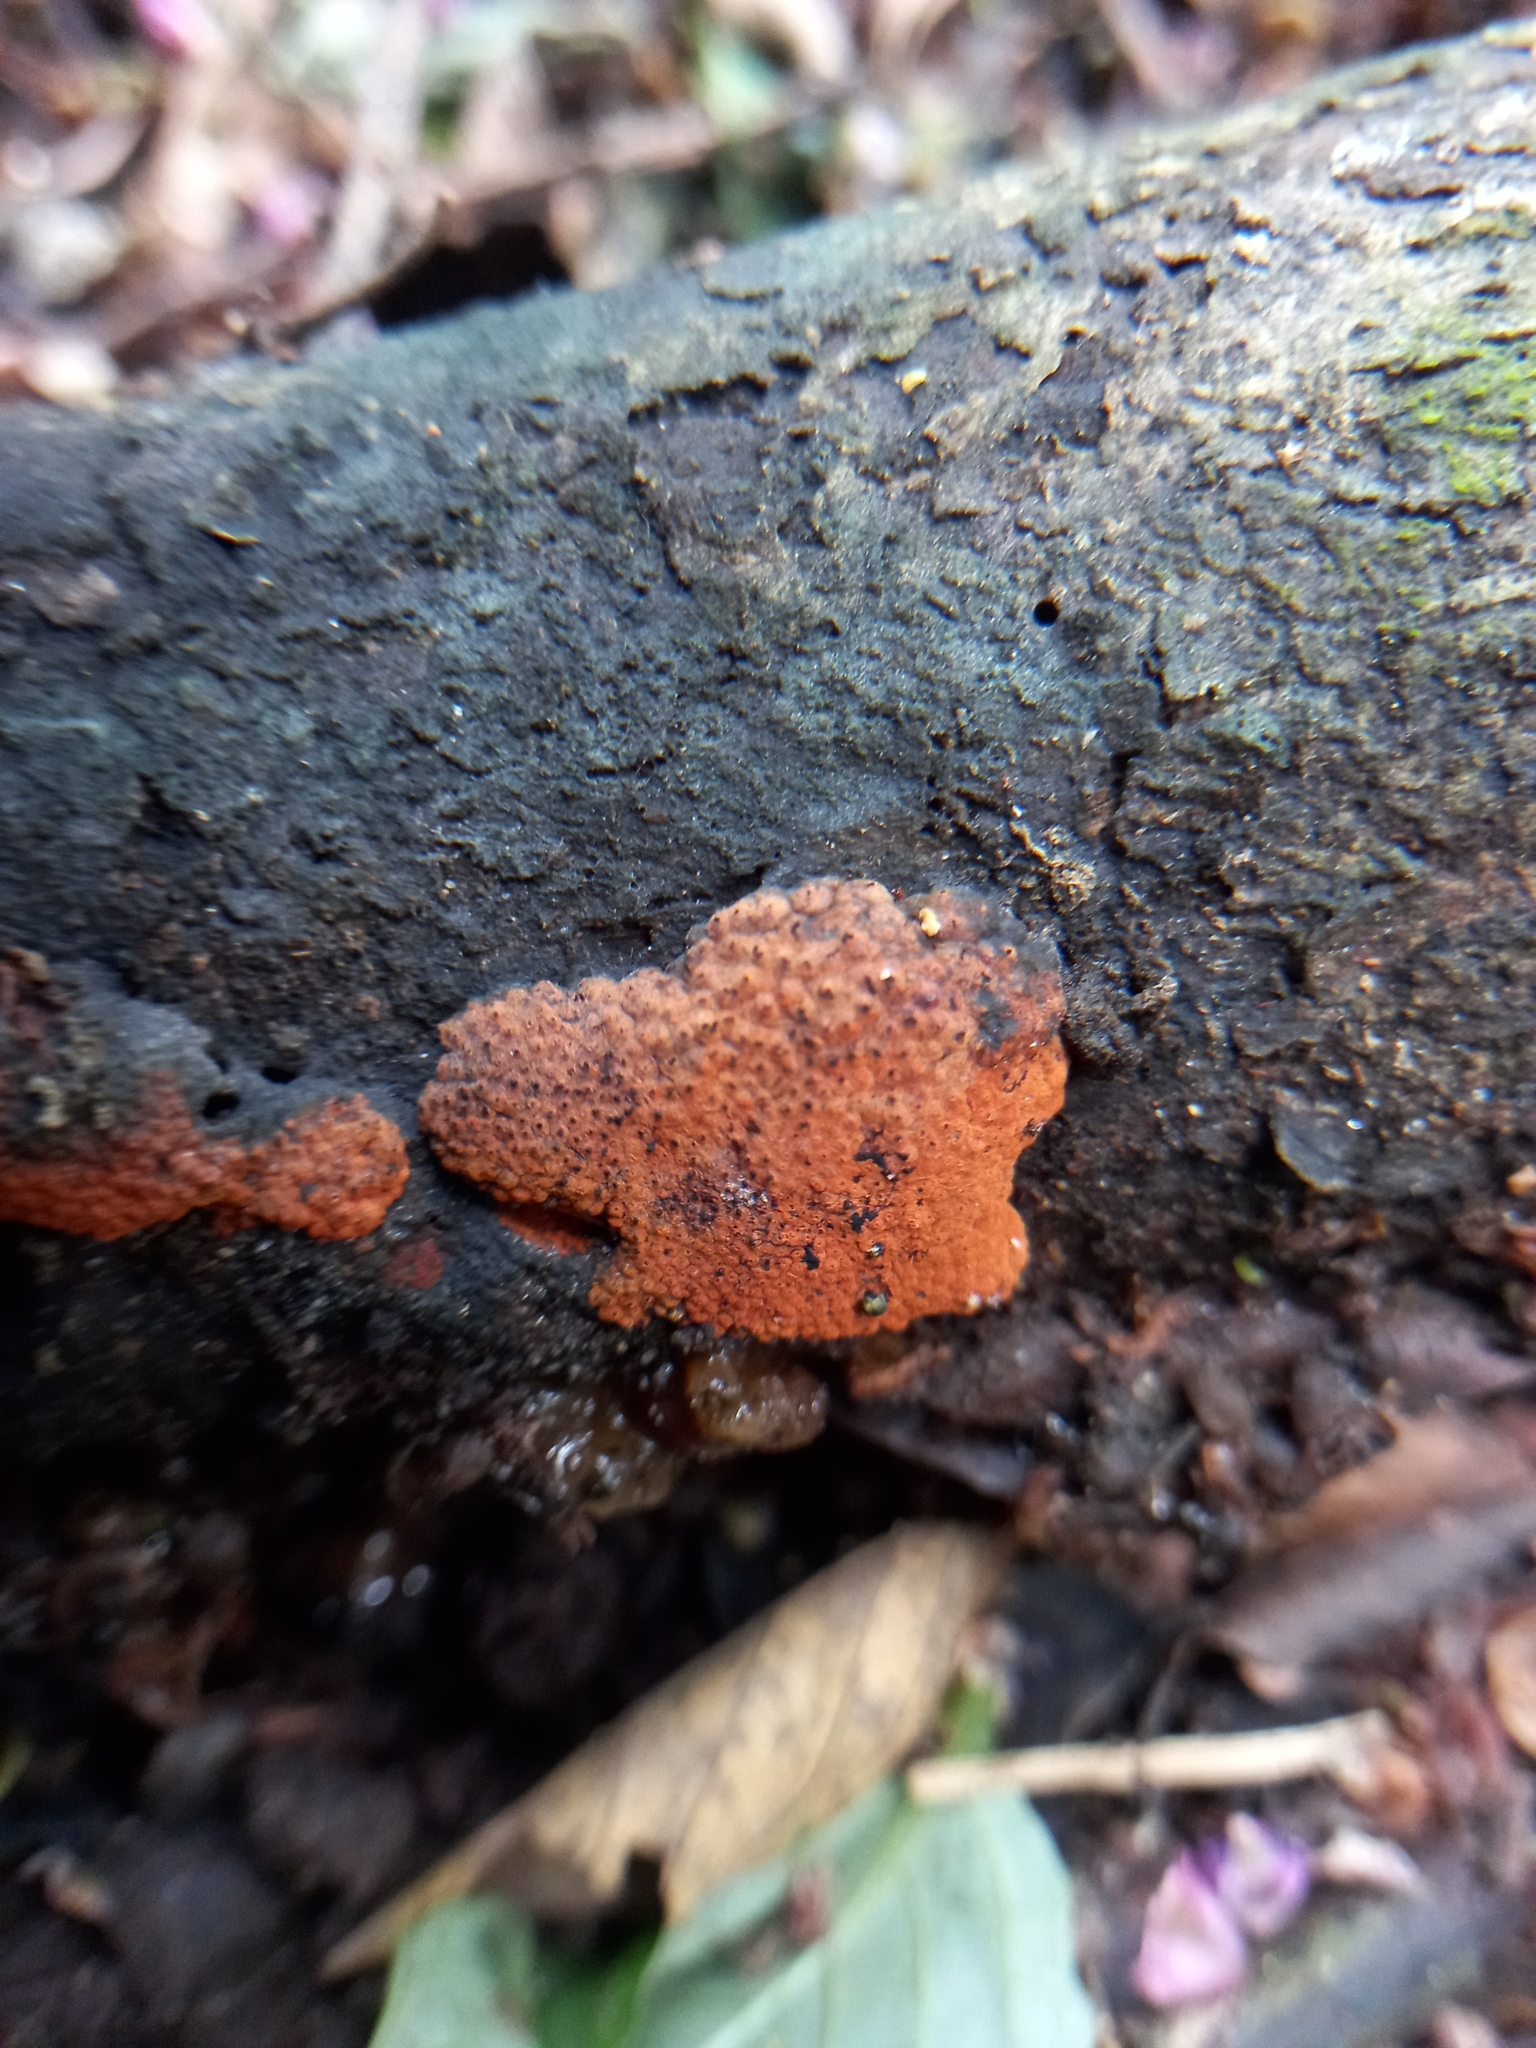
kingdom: Fungi
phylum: Ascomycota
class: Sordariomycetes
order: Xylariales
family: Hypoxylaceae
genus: Hypoxylon
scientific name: Hypoxylon haematostroma
